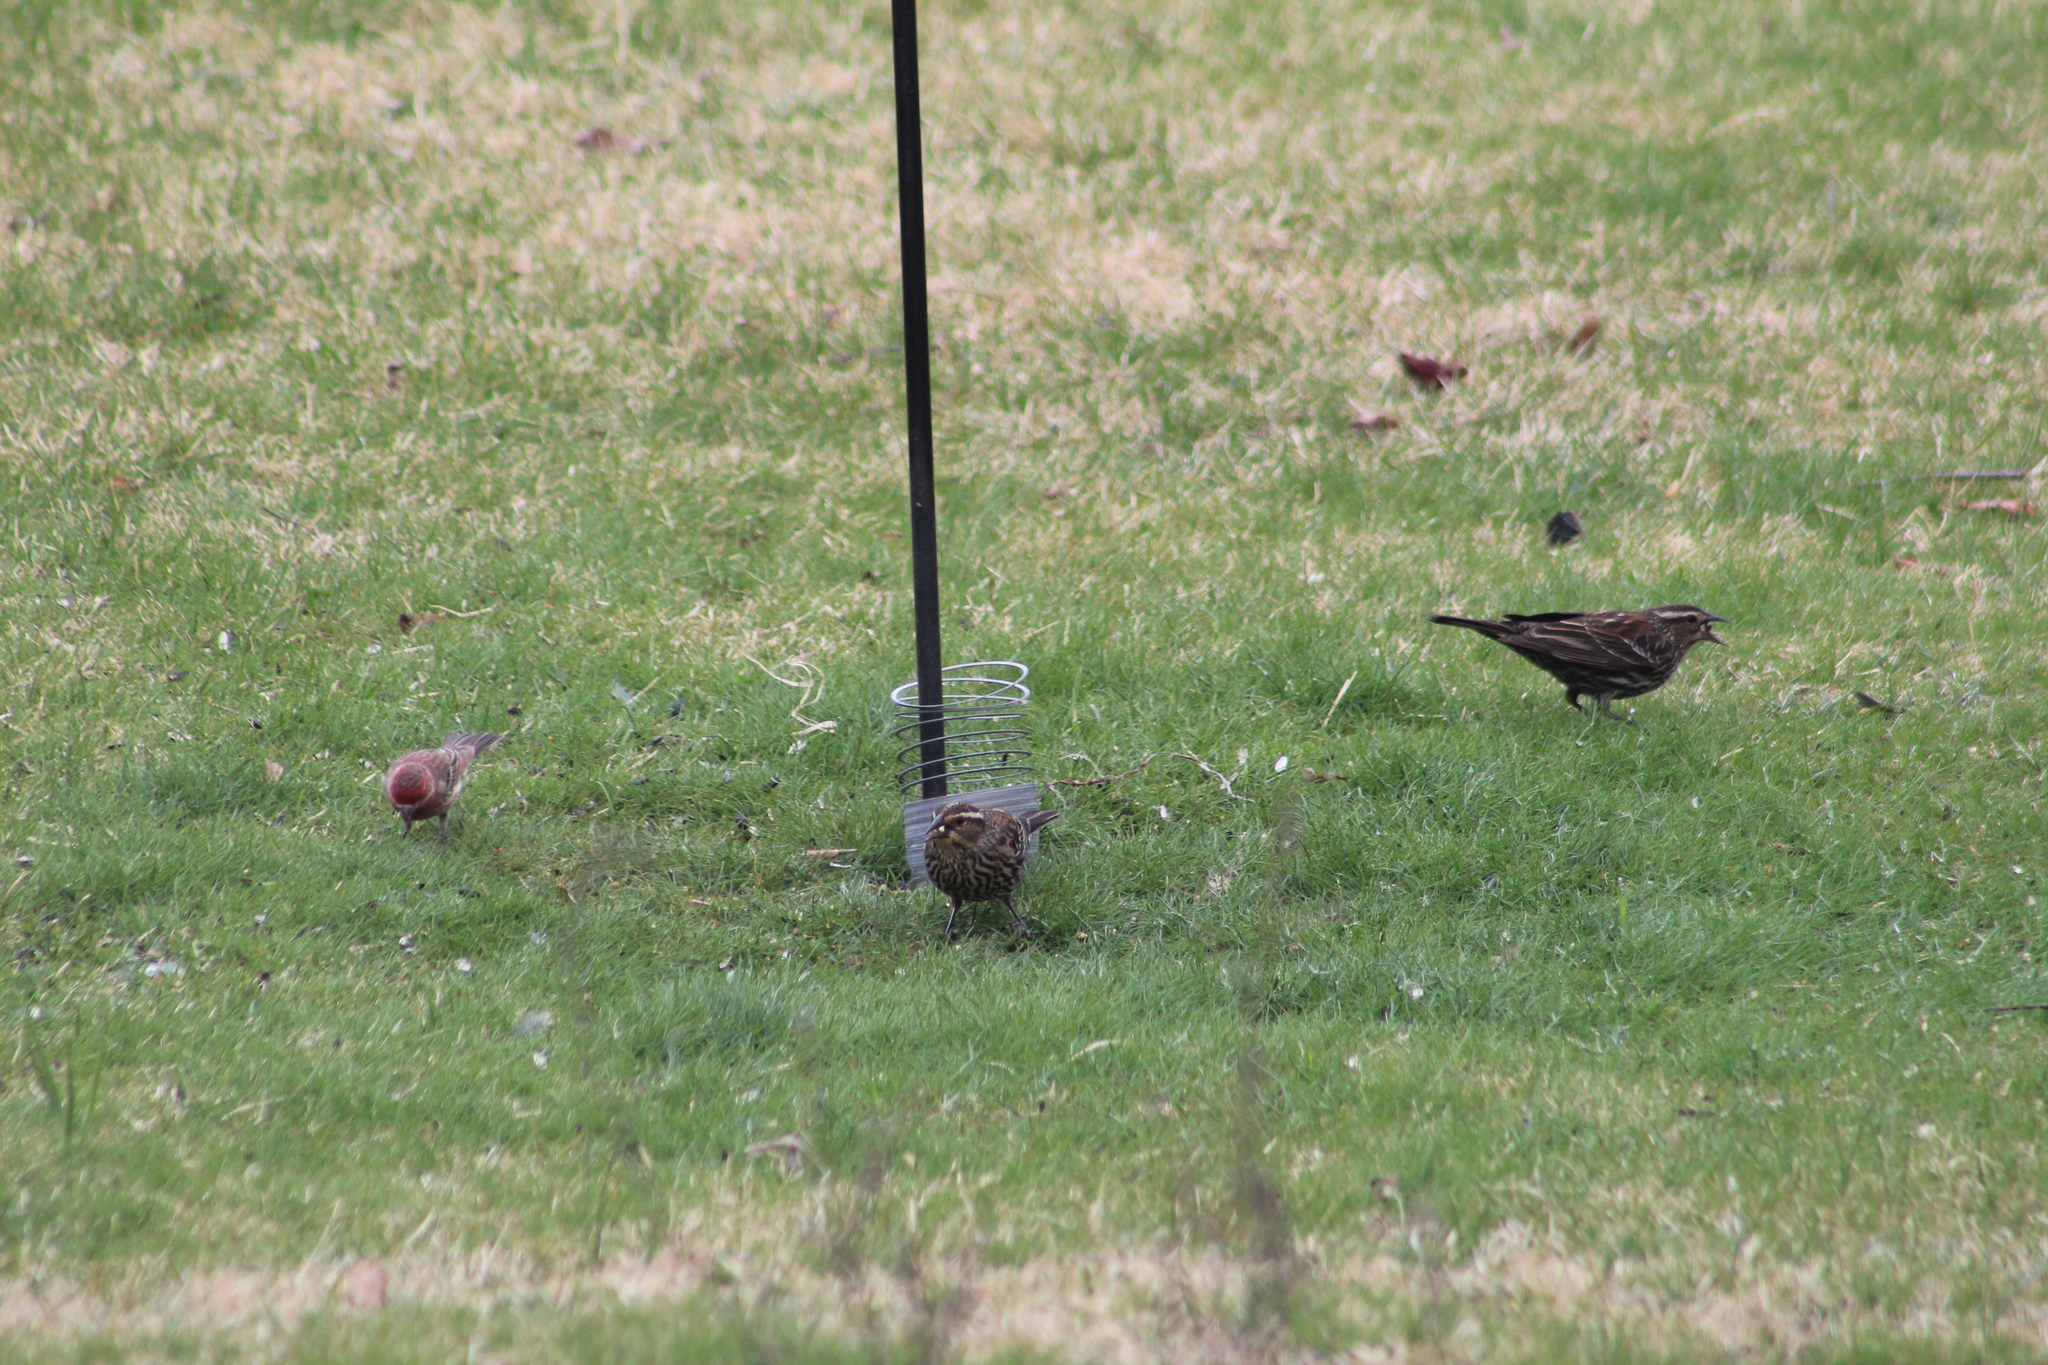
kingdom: Animalia
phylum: Chordata
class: Aves
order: Passeriformes
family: Icteridae
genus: Agelaius
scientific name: Agelaius phoeniceus
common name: Red-winged blackbird
